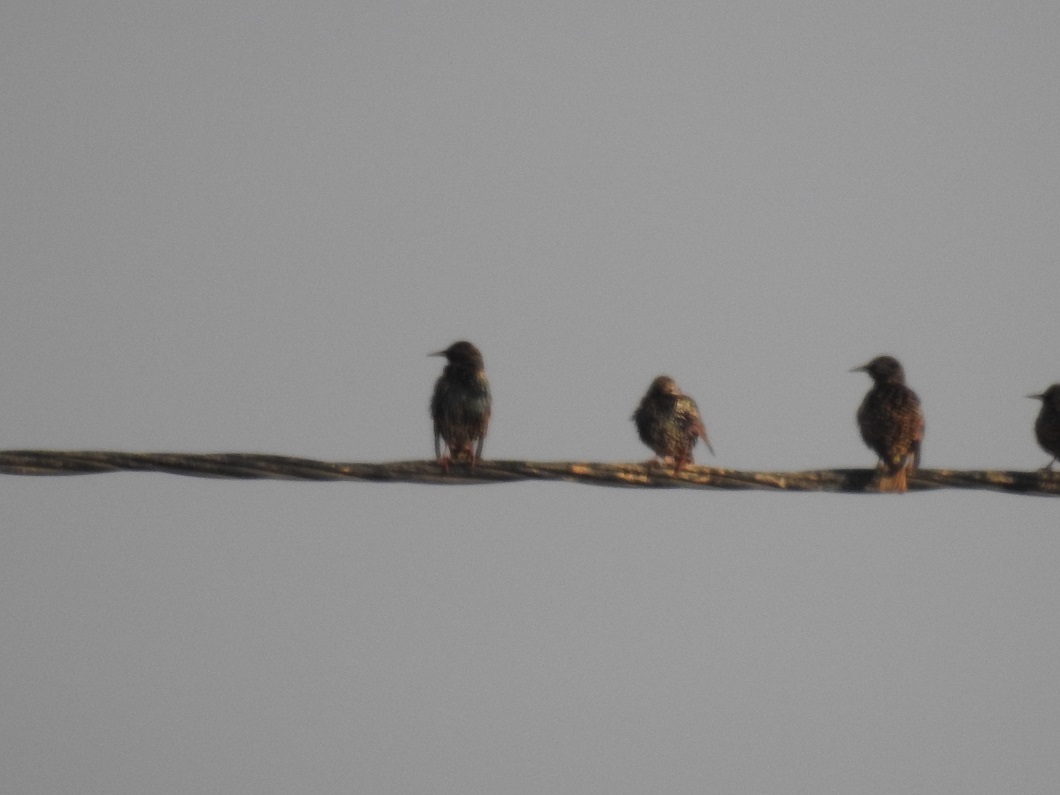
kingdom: Animalia
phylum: Chordata
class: Aves
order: Passeriformes
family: Sturnidae
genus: Sturnus
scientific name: Sturnus vulgaris
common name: Common starling
